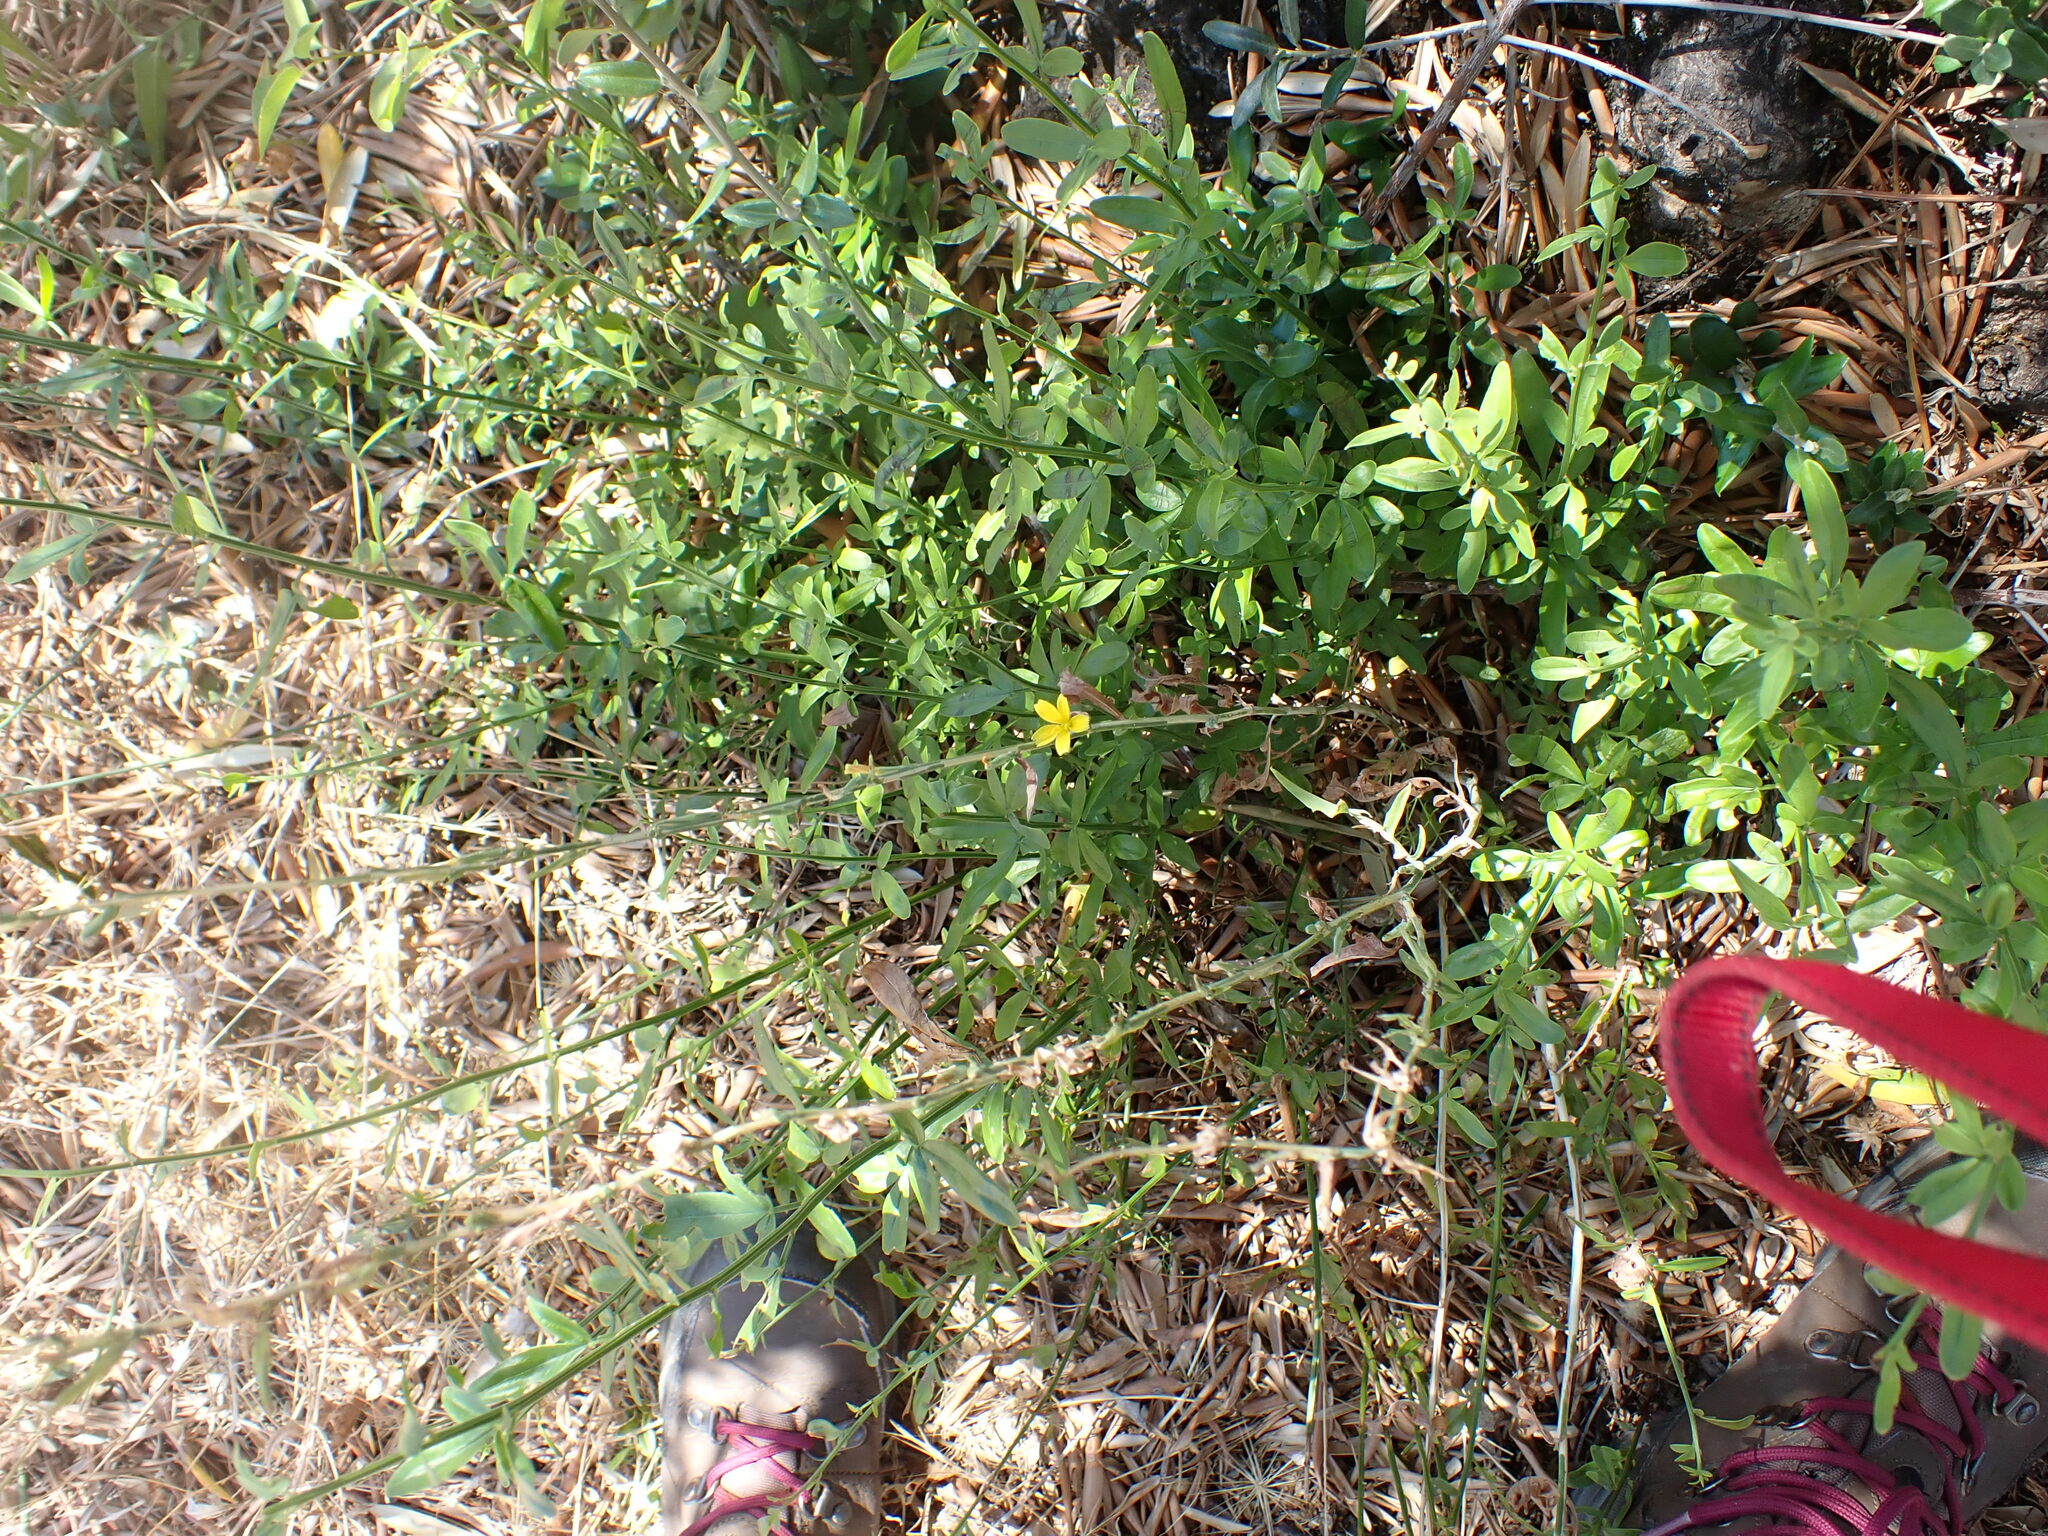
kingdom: Plantae
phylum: Tracheophyta
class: Magnoliopsida
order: Asterales
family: Asteraceae
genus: Lactuca
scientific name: Lactuca viminea
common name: Pliant lettuce
